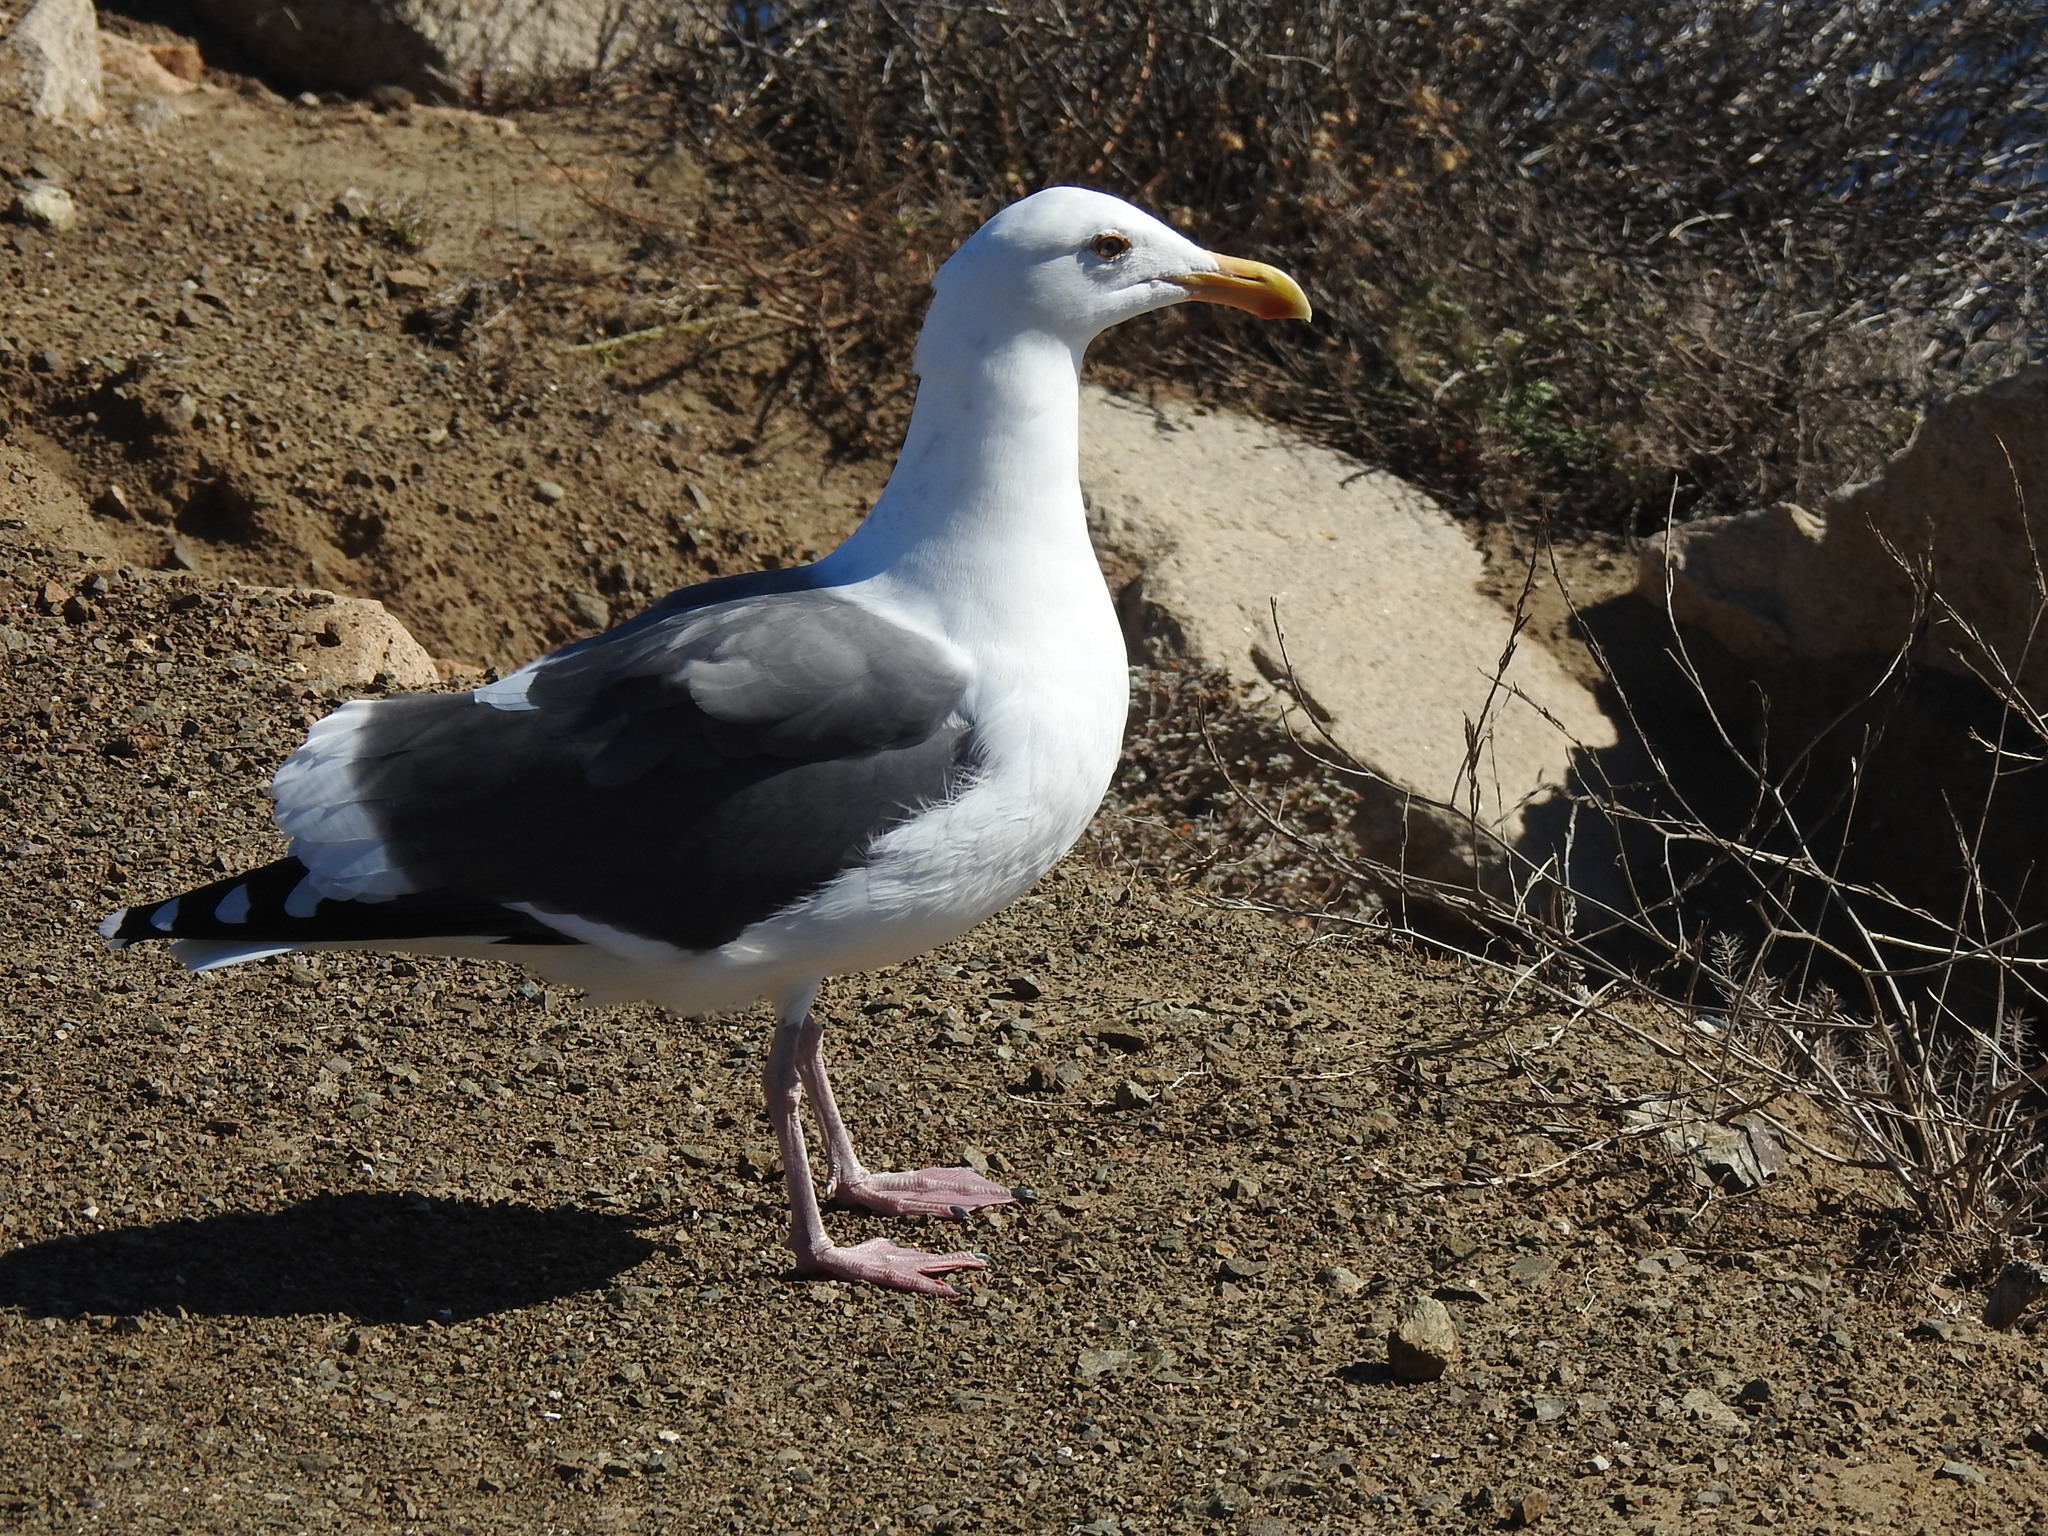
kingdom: Animalia
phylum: Chordata
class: Aves
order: Charadriiformes
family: Laridae
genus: Larus
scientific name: Larus occidentalis
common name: Western gull
